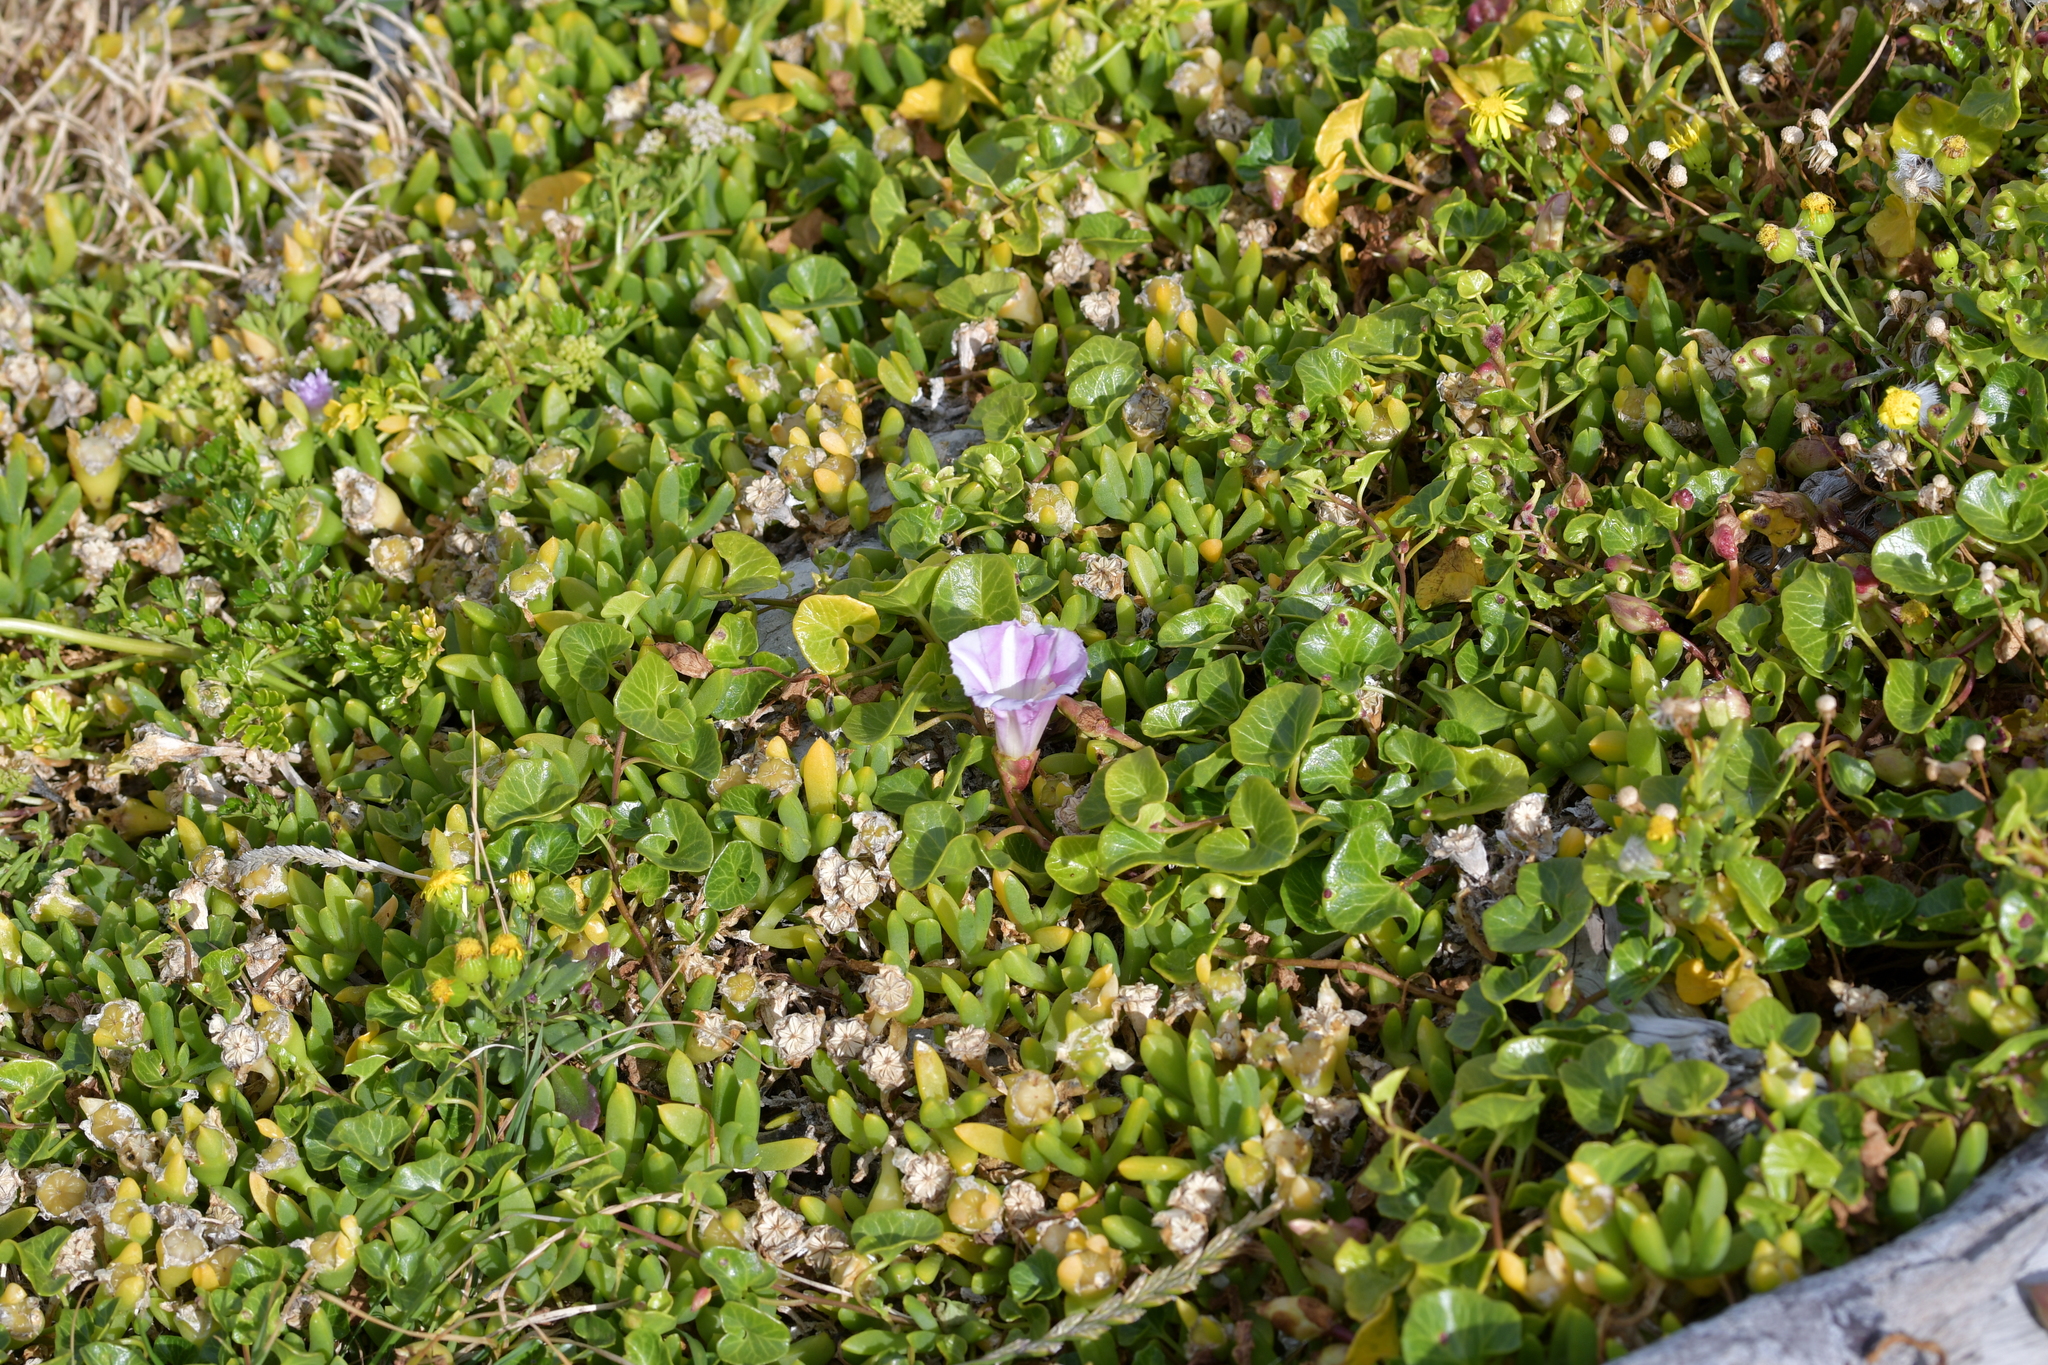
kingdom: Plantae
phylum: Tracheophyta
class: Magnoliopsida
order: Solanales
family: Convolvulaceae
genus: Calystegia
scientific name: Calystegia soldanella
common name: Sea bindweed
